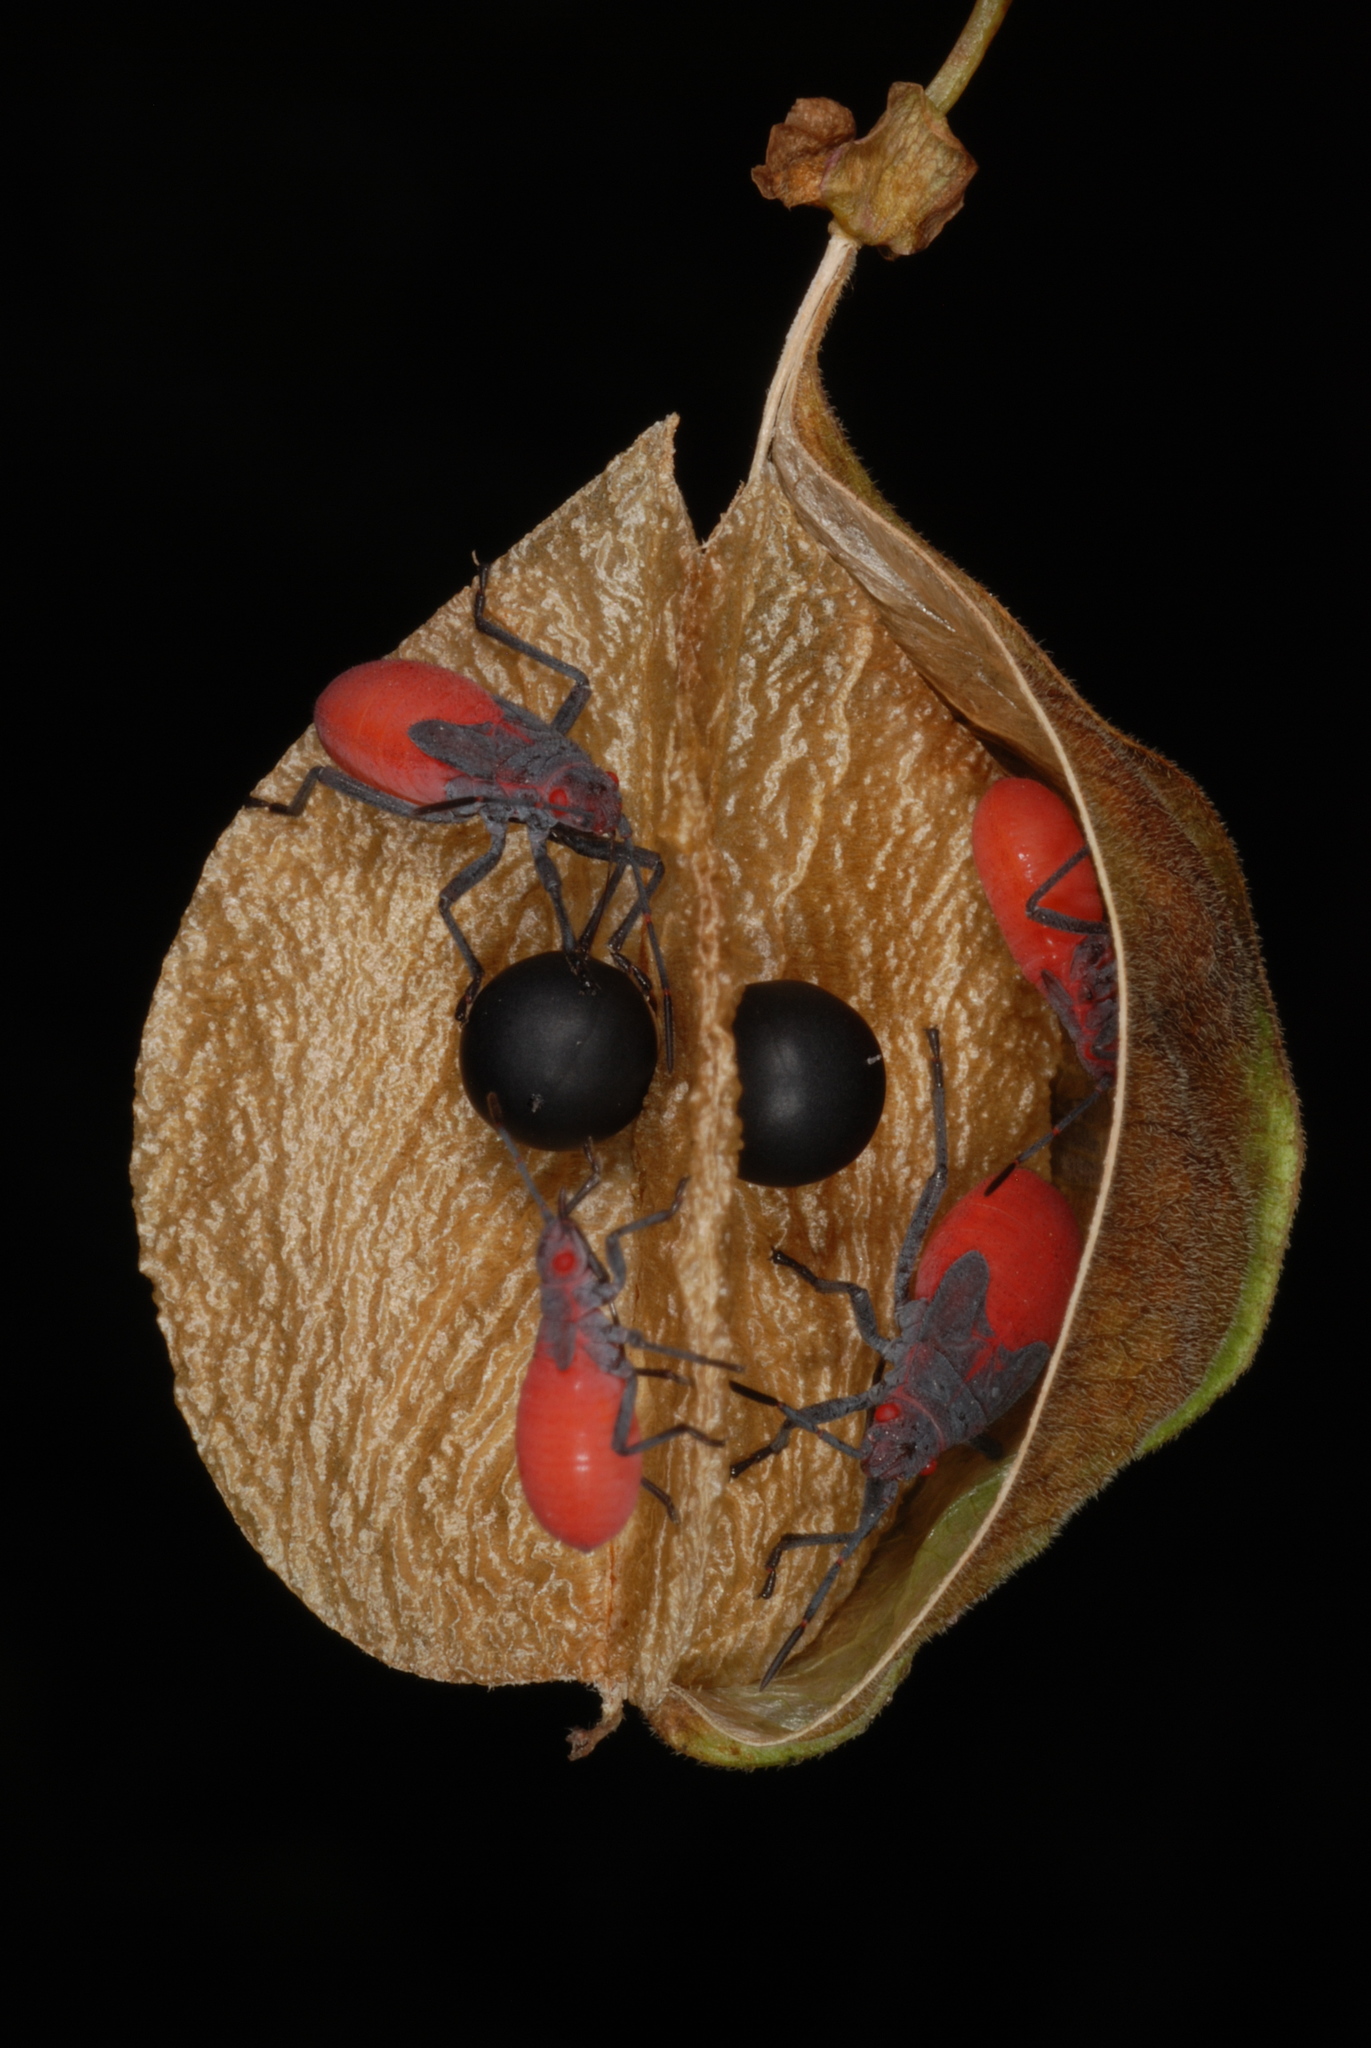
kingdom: Animalia
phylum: Arthropoda
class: Insecta
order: Hemiptera
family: Rhopalidae
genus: Jadera
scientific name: Jadera haematoloma
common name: Red-shouldered bug
